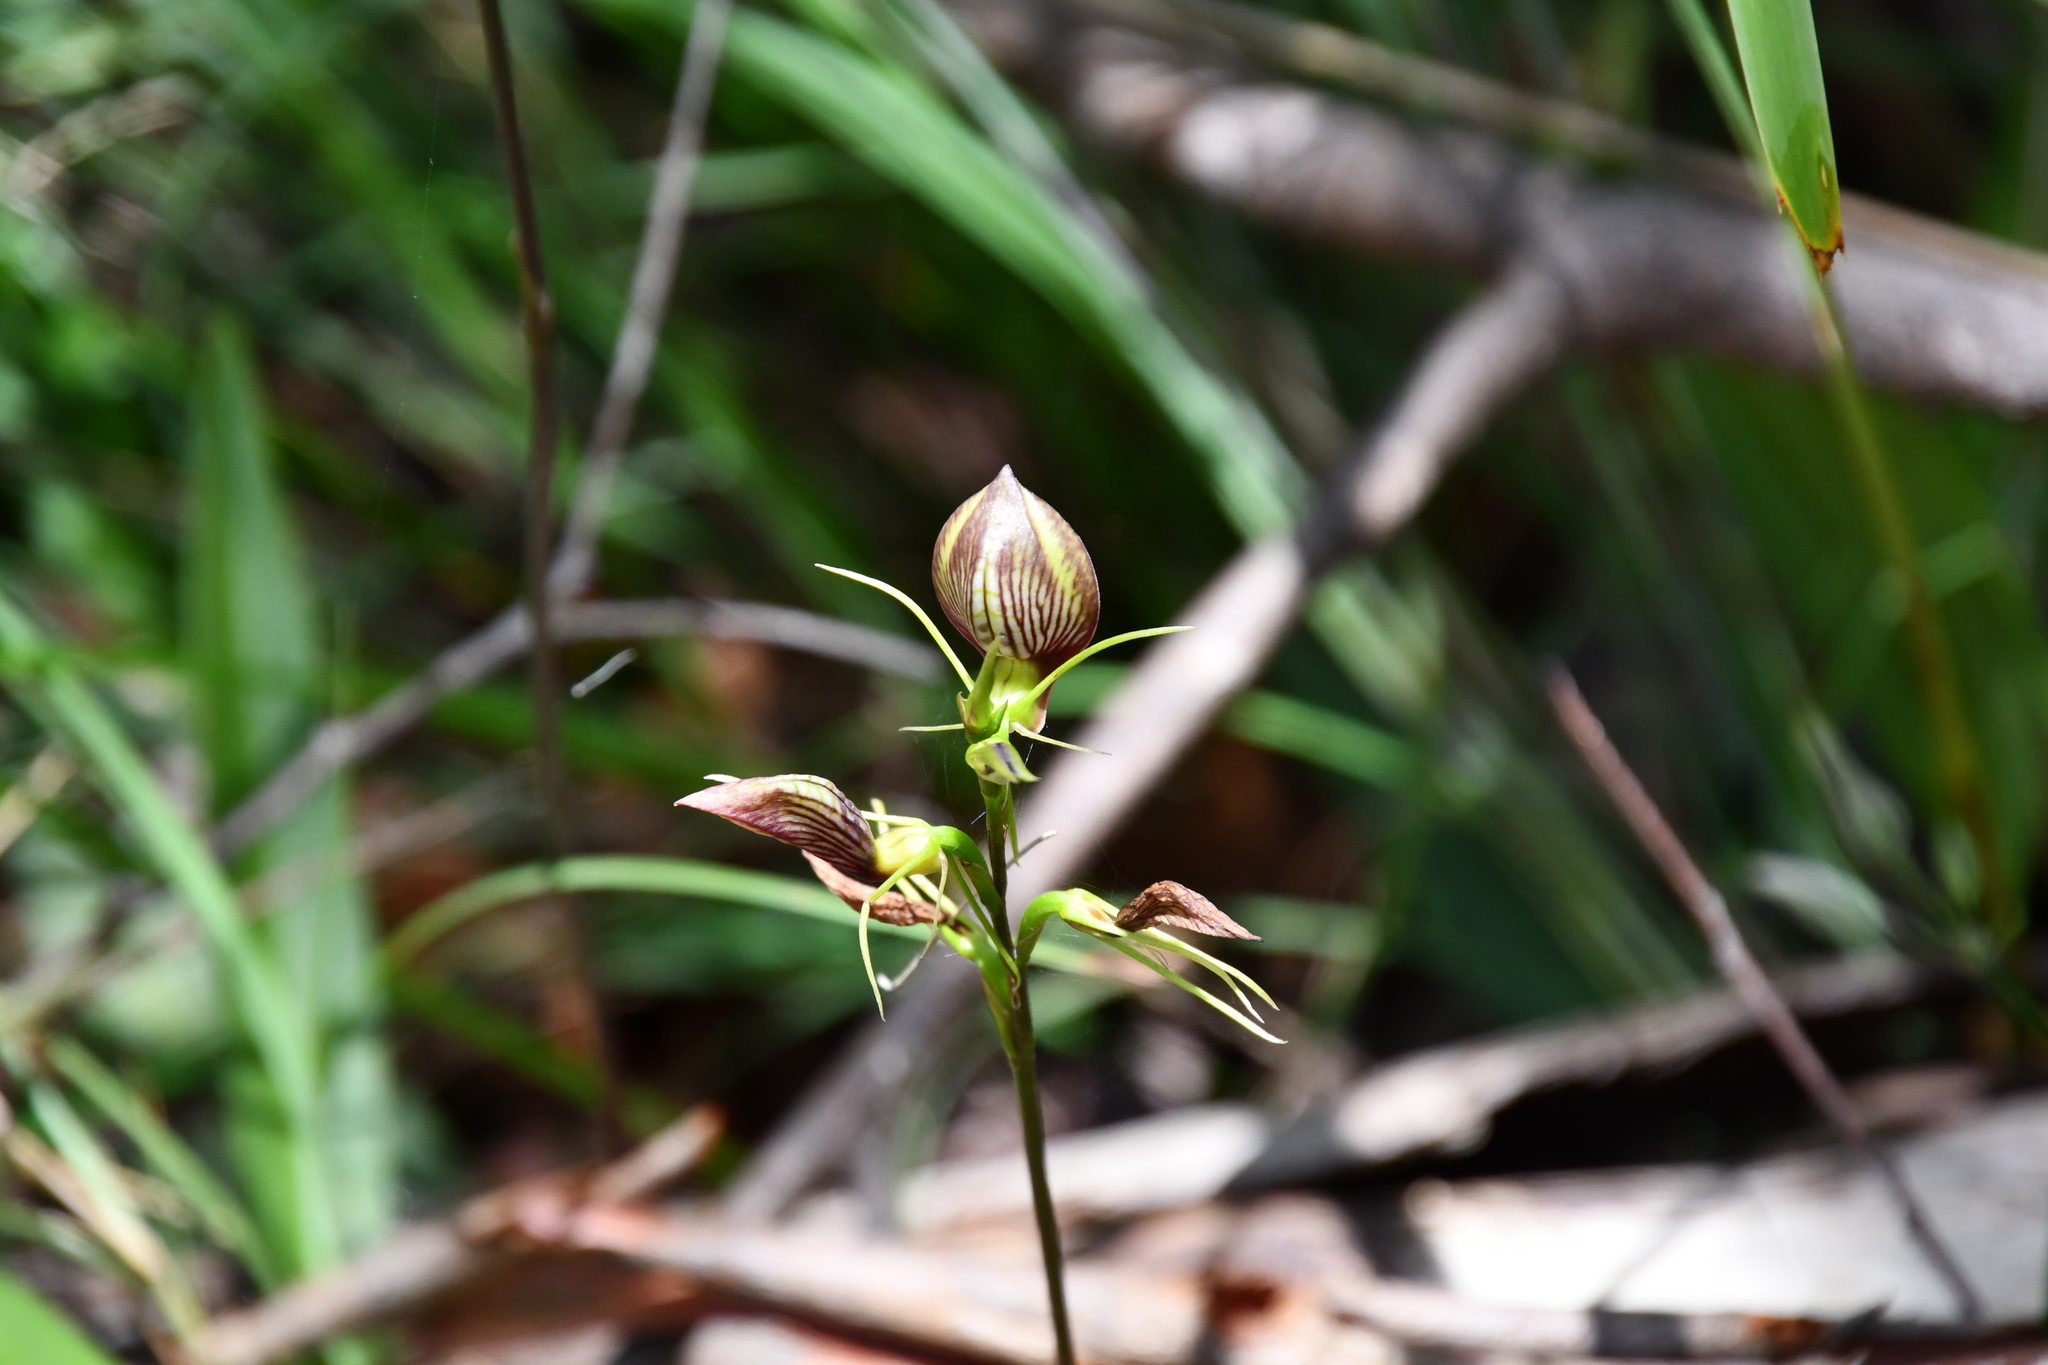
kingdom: Plantae
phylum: Tracheophyta
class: Liliopsida
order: Asparagales
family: Orchidaceae
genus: Cryptostylis
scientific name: Cryptostylis erecta
